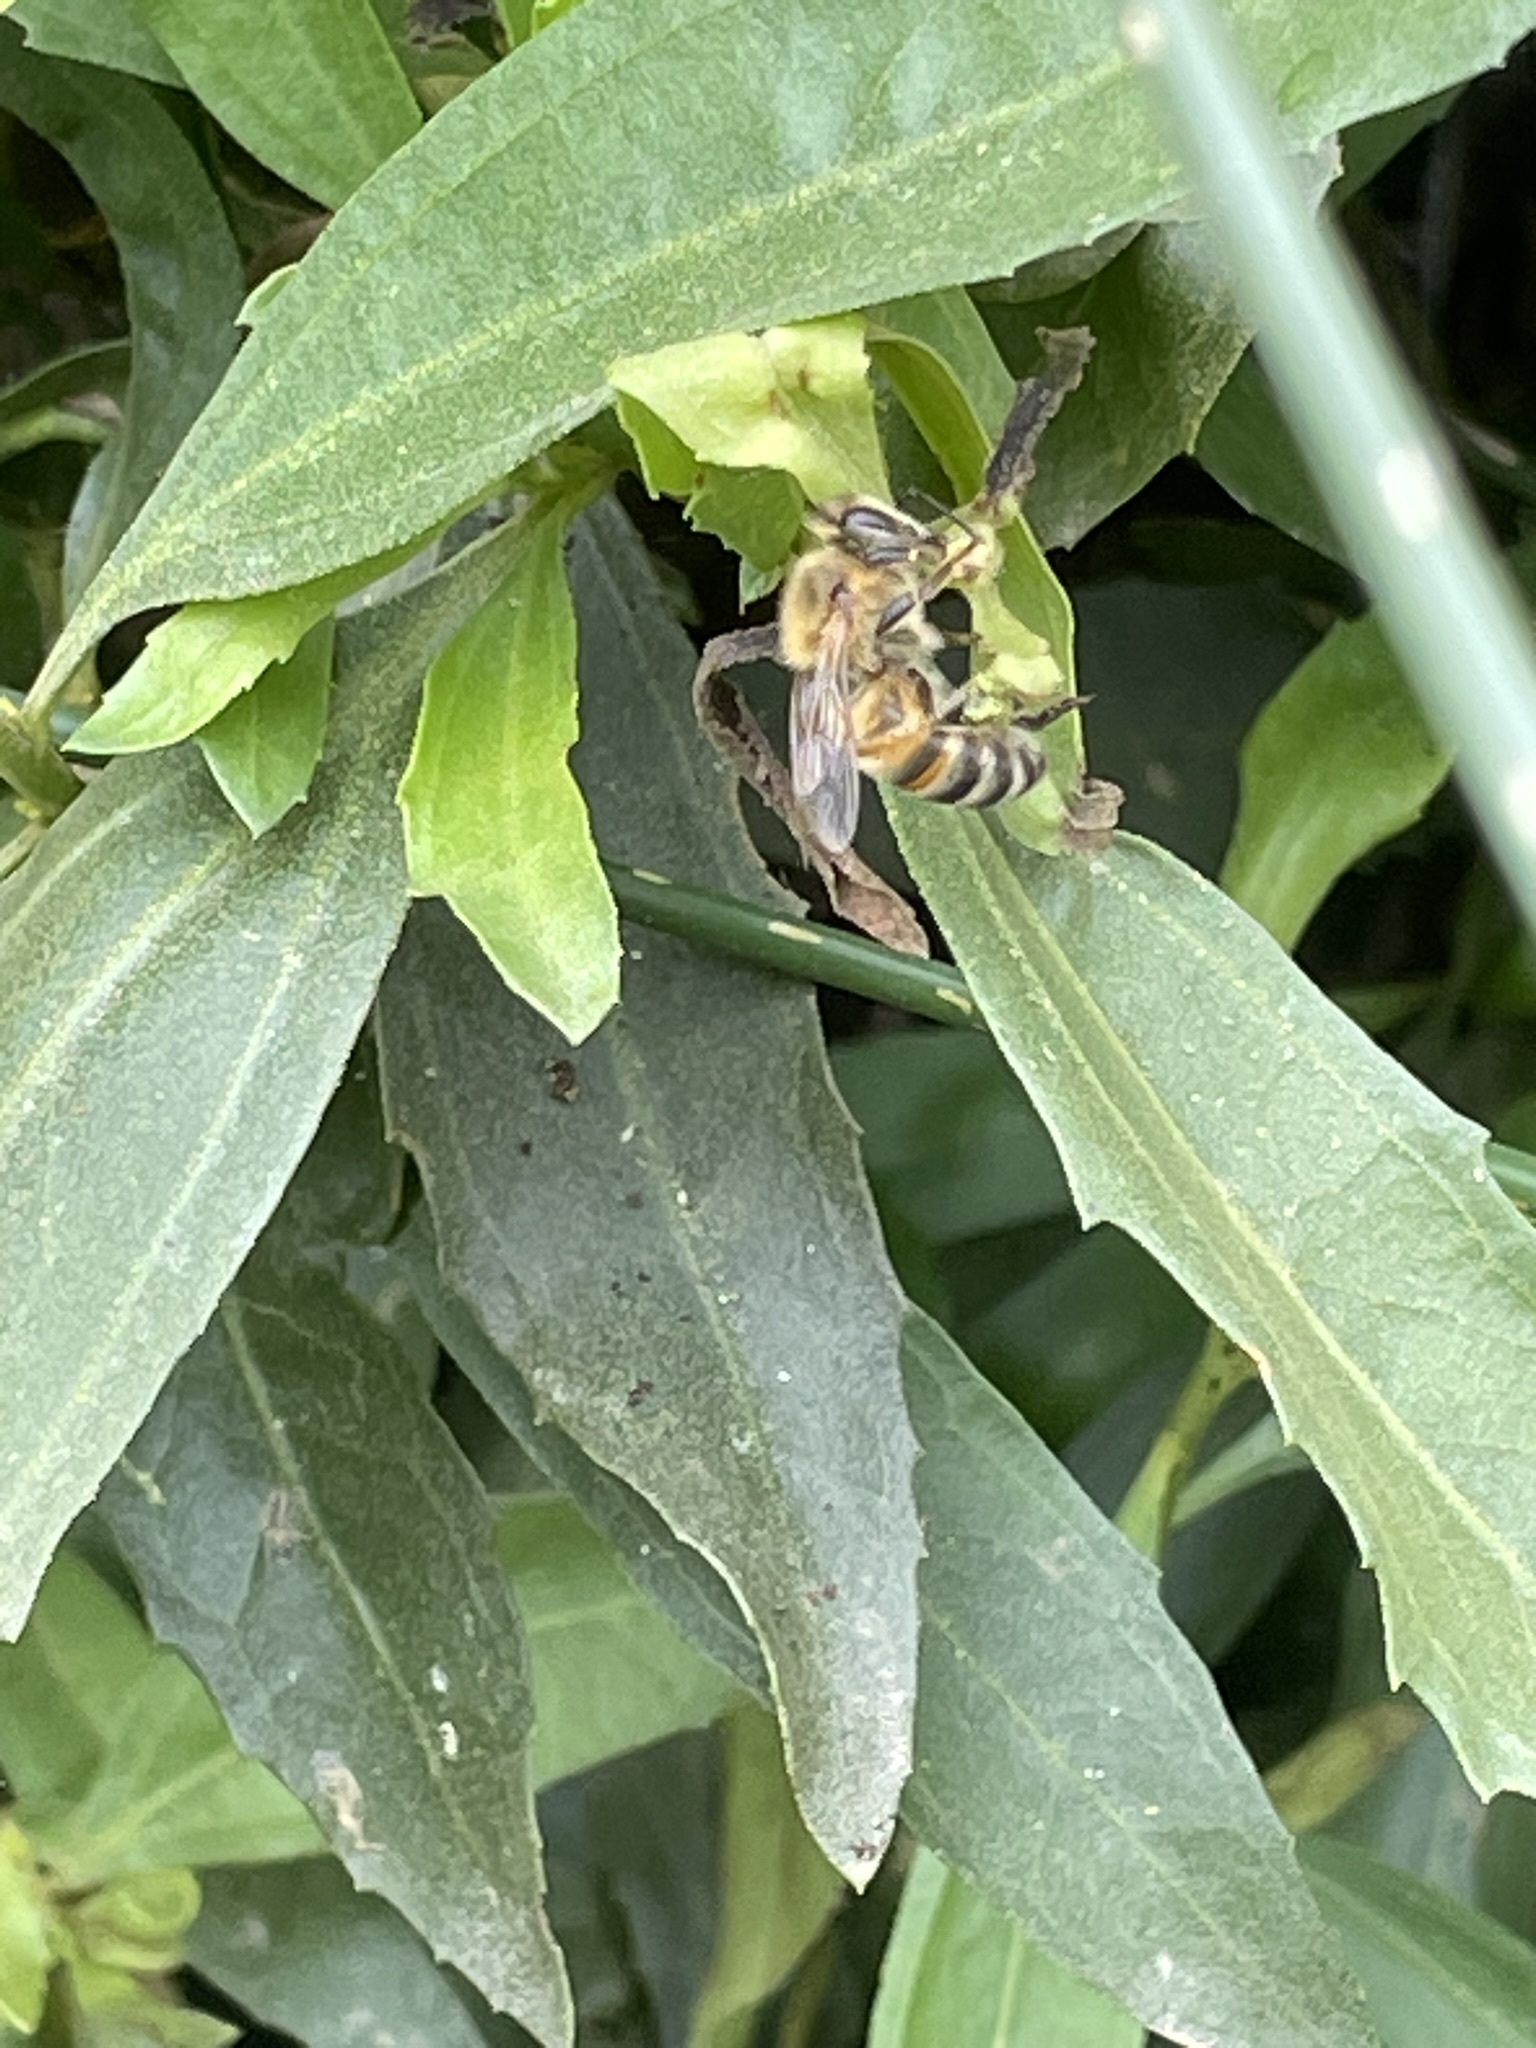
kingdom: Animalia
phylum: Arthropoda
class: Insecta
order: Hymenoptera
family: Apidae
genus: Apis
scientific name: Apis mellifera
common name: Honey bee
